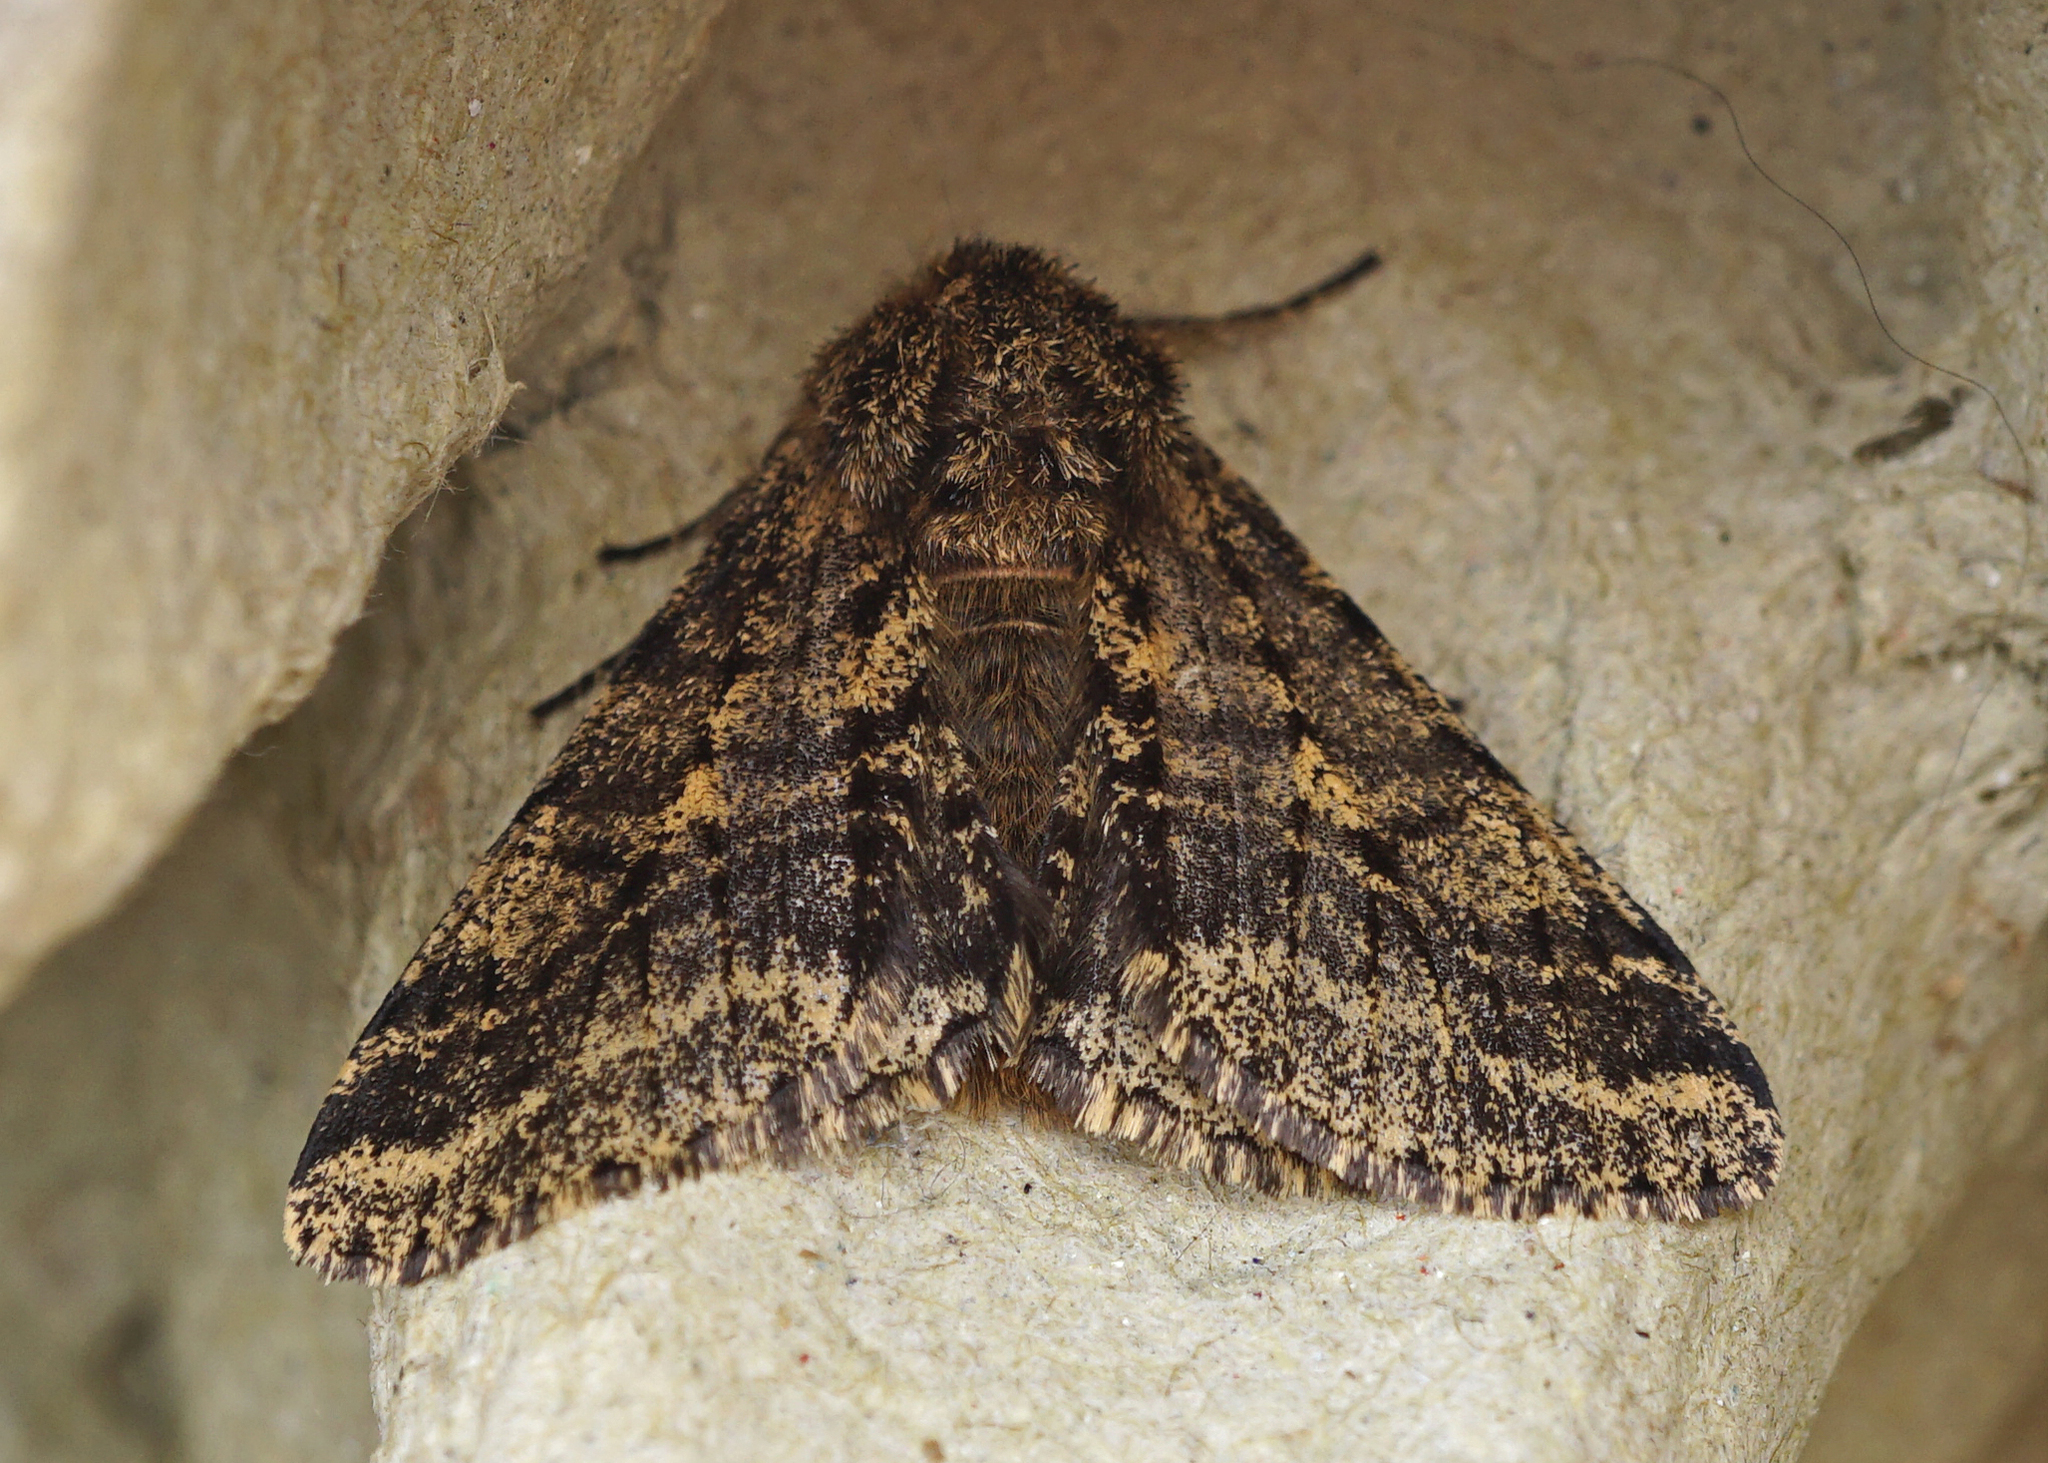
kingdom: Animalia
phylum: Arthropoda
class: Insecta
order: Lepidoptera
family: Geometridae
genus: Lycia
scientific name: Lycia hirtaria
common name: Brindled beauty
